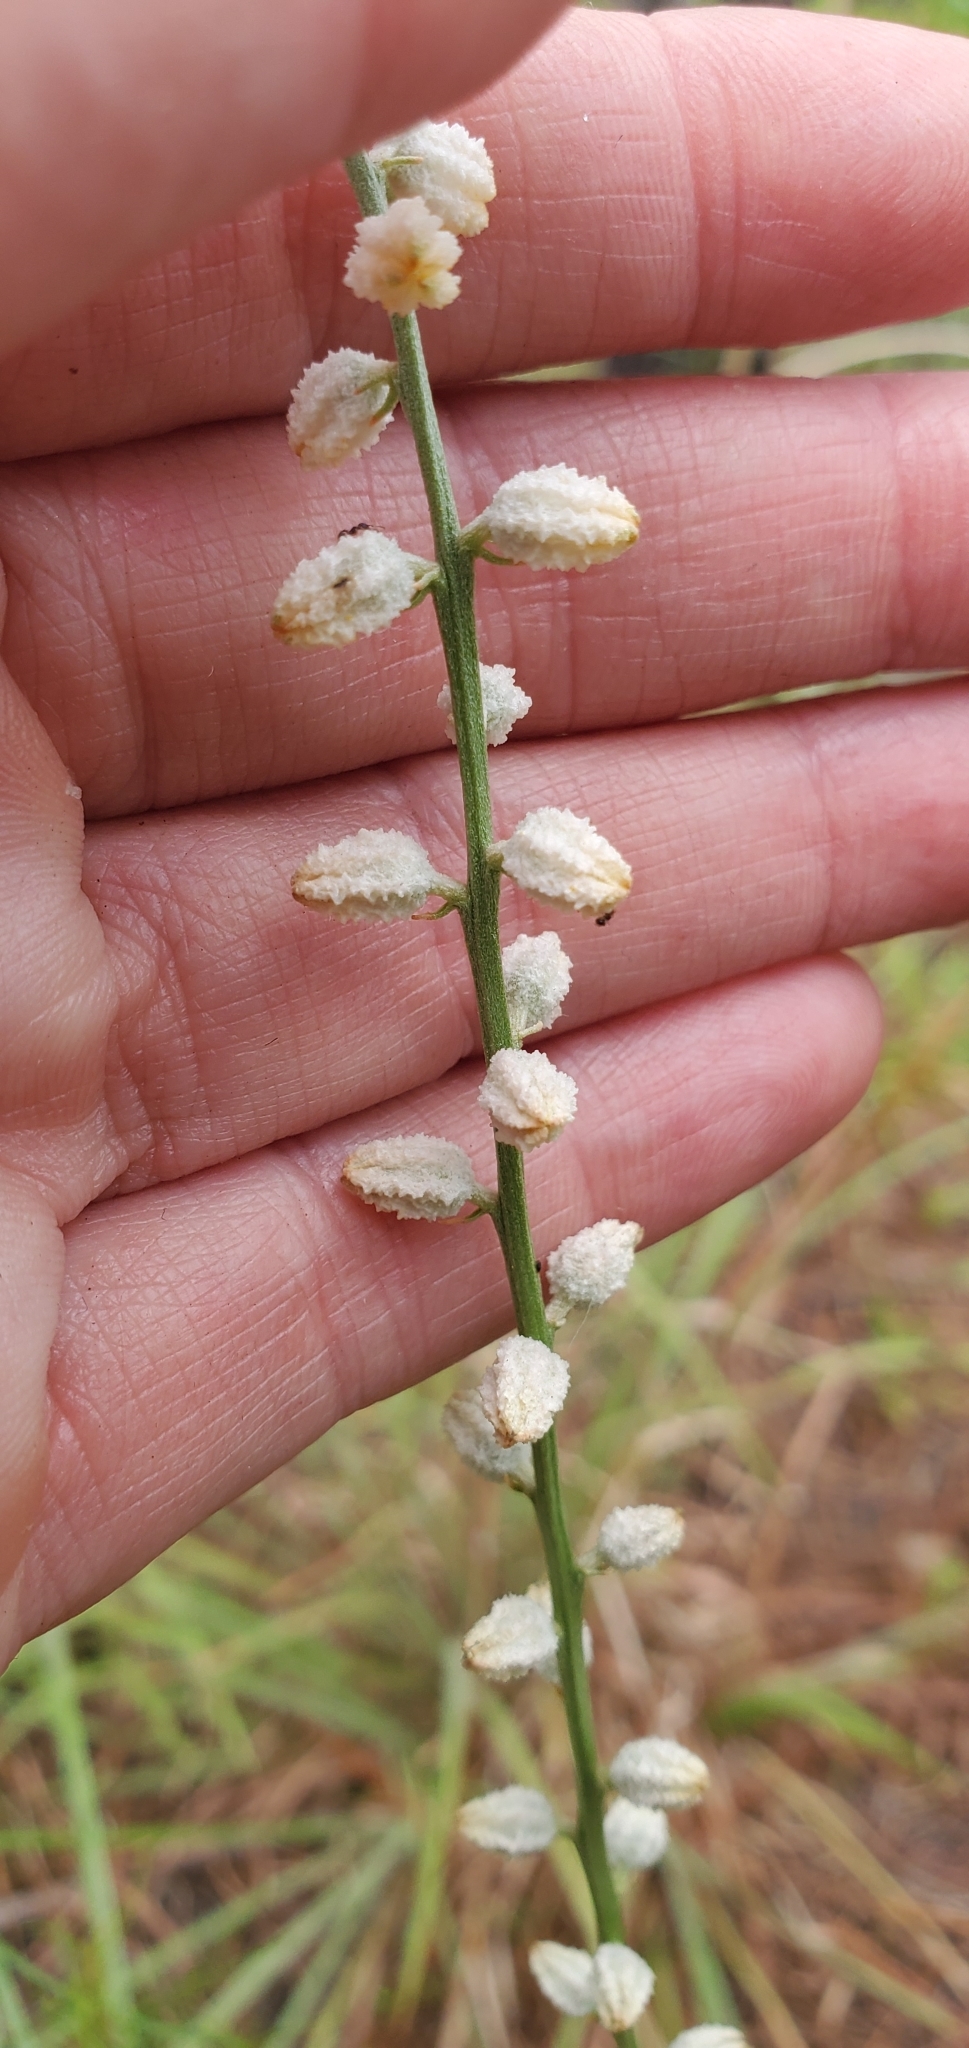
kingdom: Plantae
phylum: Tracheophyta
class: Liliopsida
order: Dioscoreales
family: Nartheciaceae
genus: Aletris
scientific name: Aletris obovata
